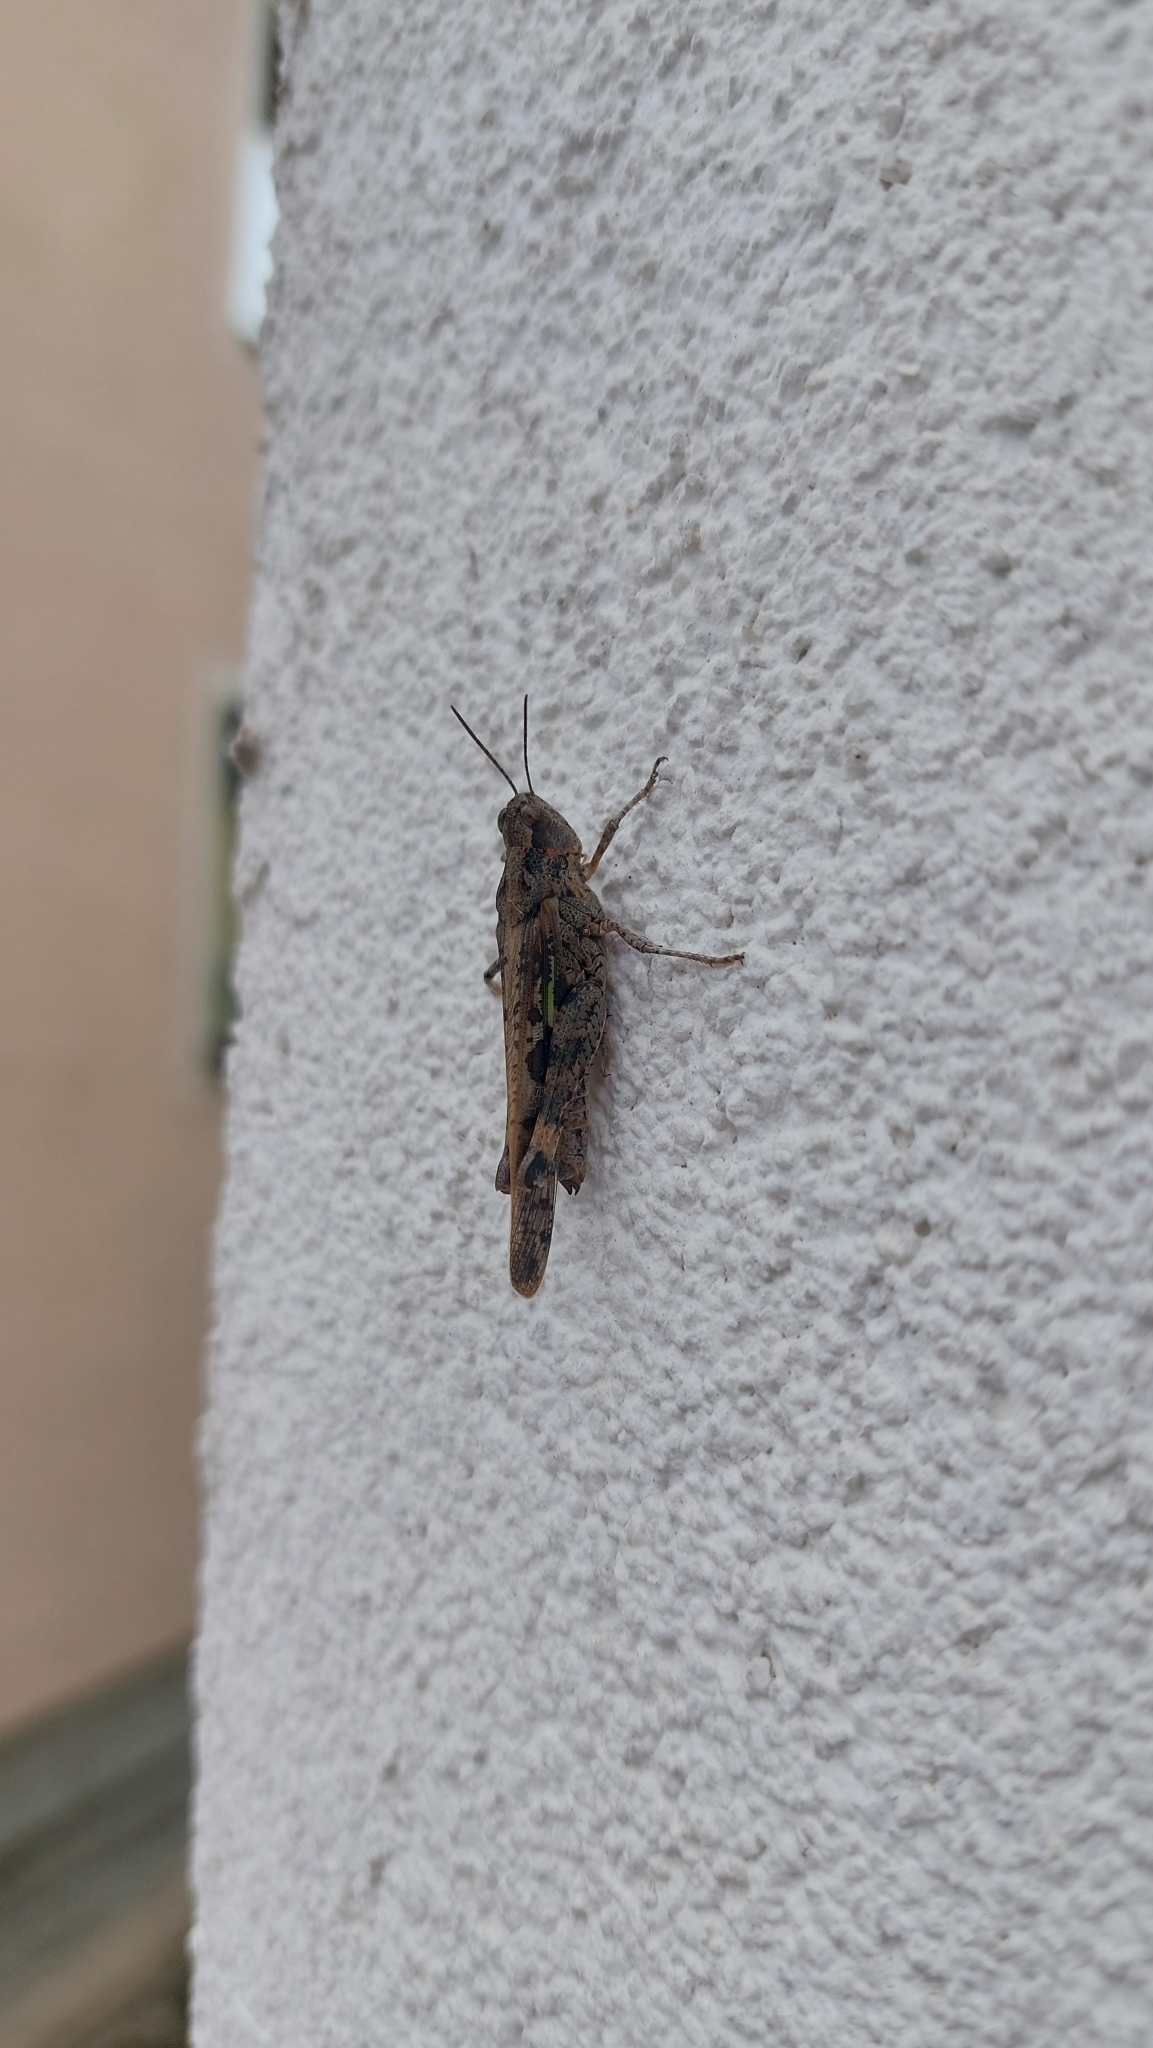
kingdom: Animalia
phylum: Arthropoda
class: Insecta
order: Orthoptera
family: Acrididae
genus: Aiolopus
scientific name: Aiolopus thalassinus
